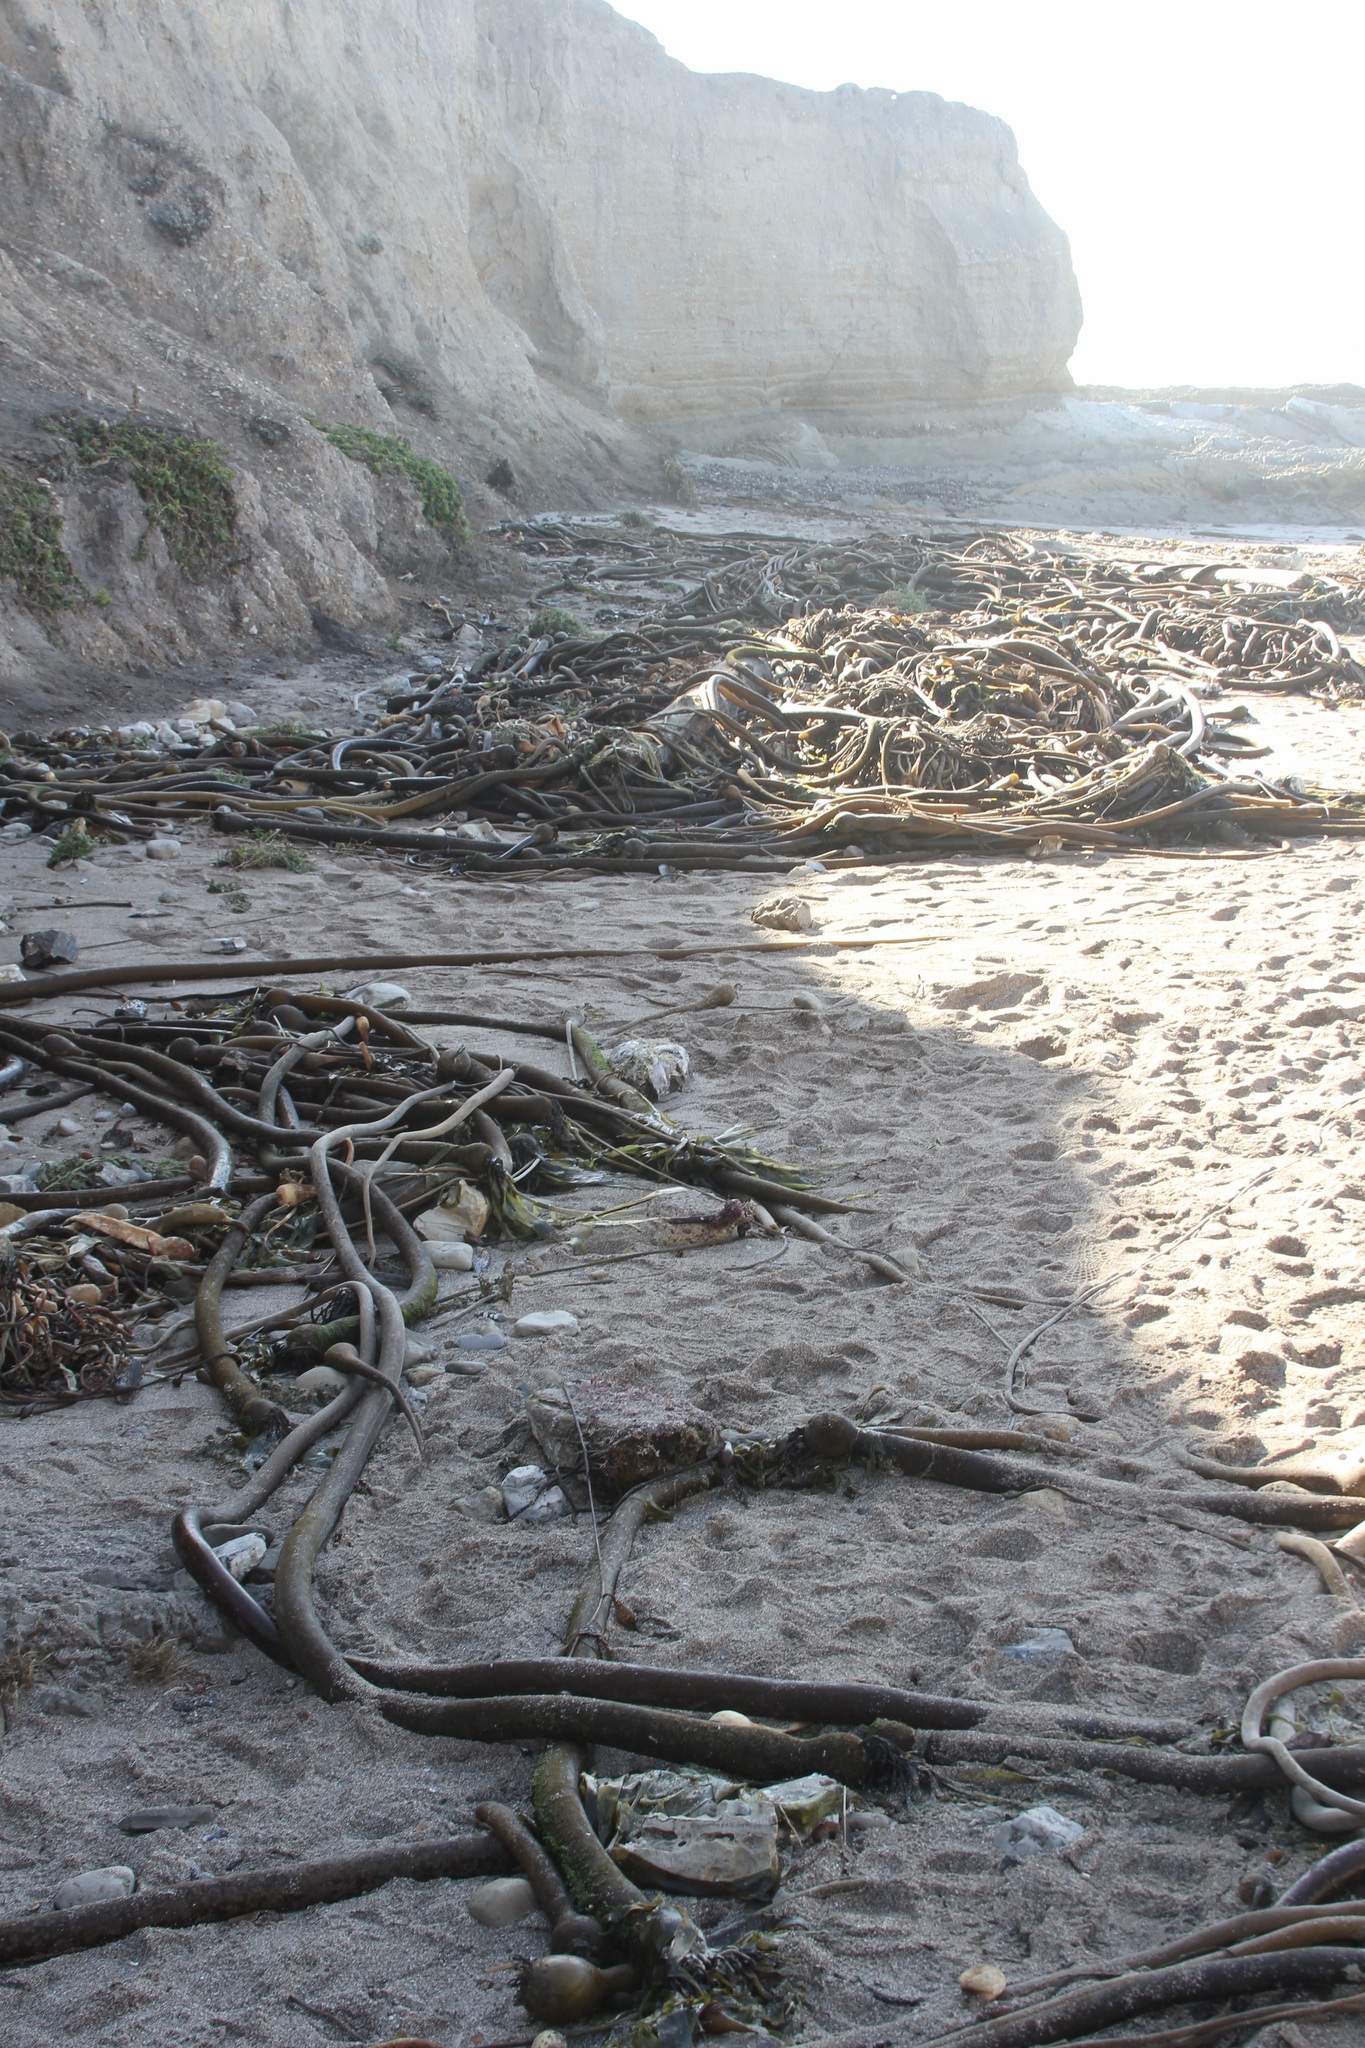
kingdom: Chromista
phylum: Ochrophyta
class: Phaeophyceae
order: Laminariales
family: Laminariaceae
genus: Nereocystis
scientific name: Nereocystis luetkeana
